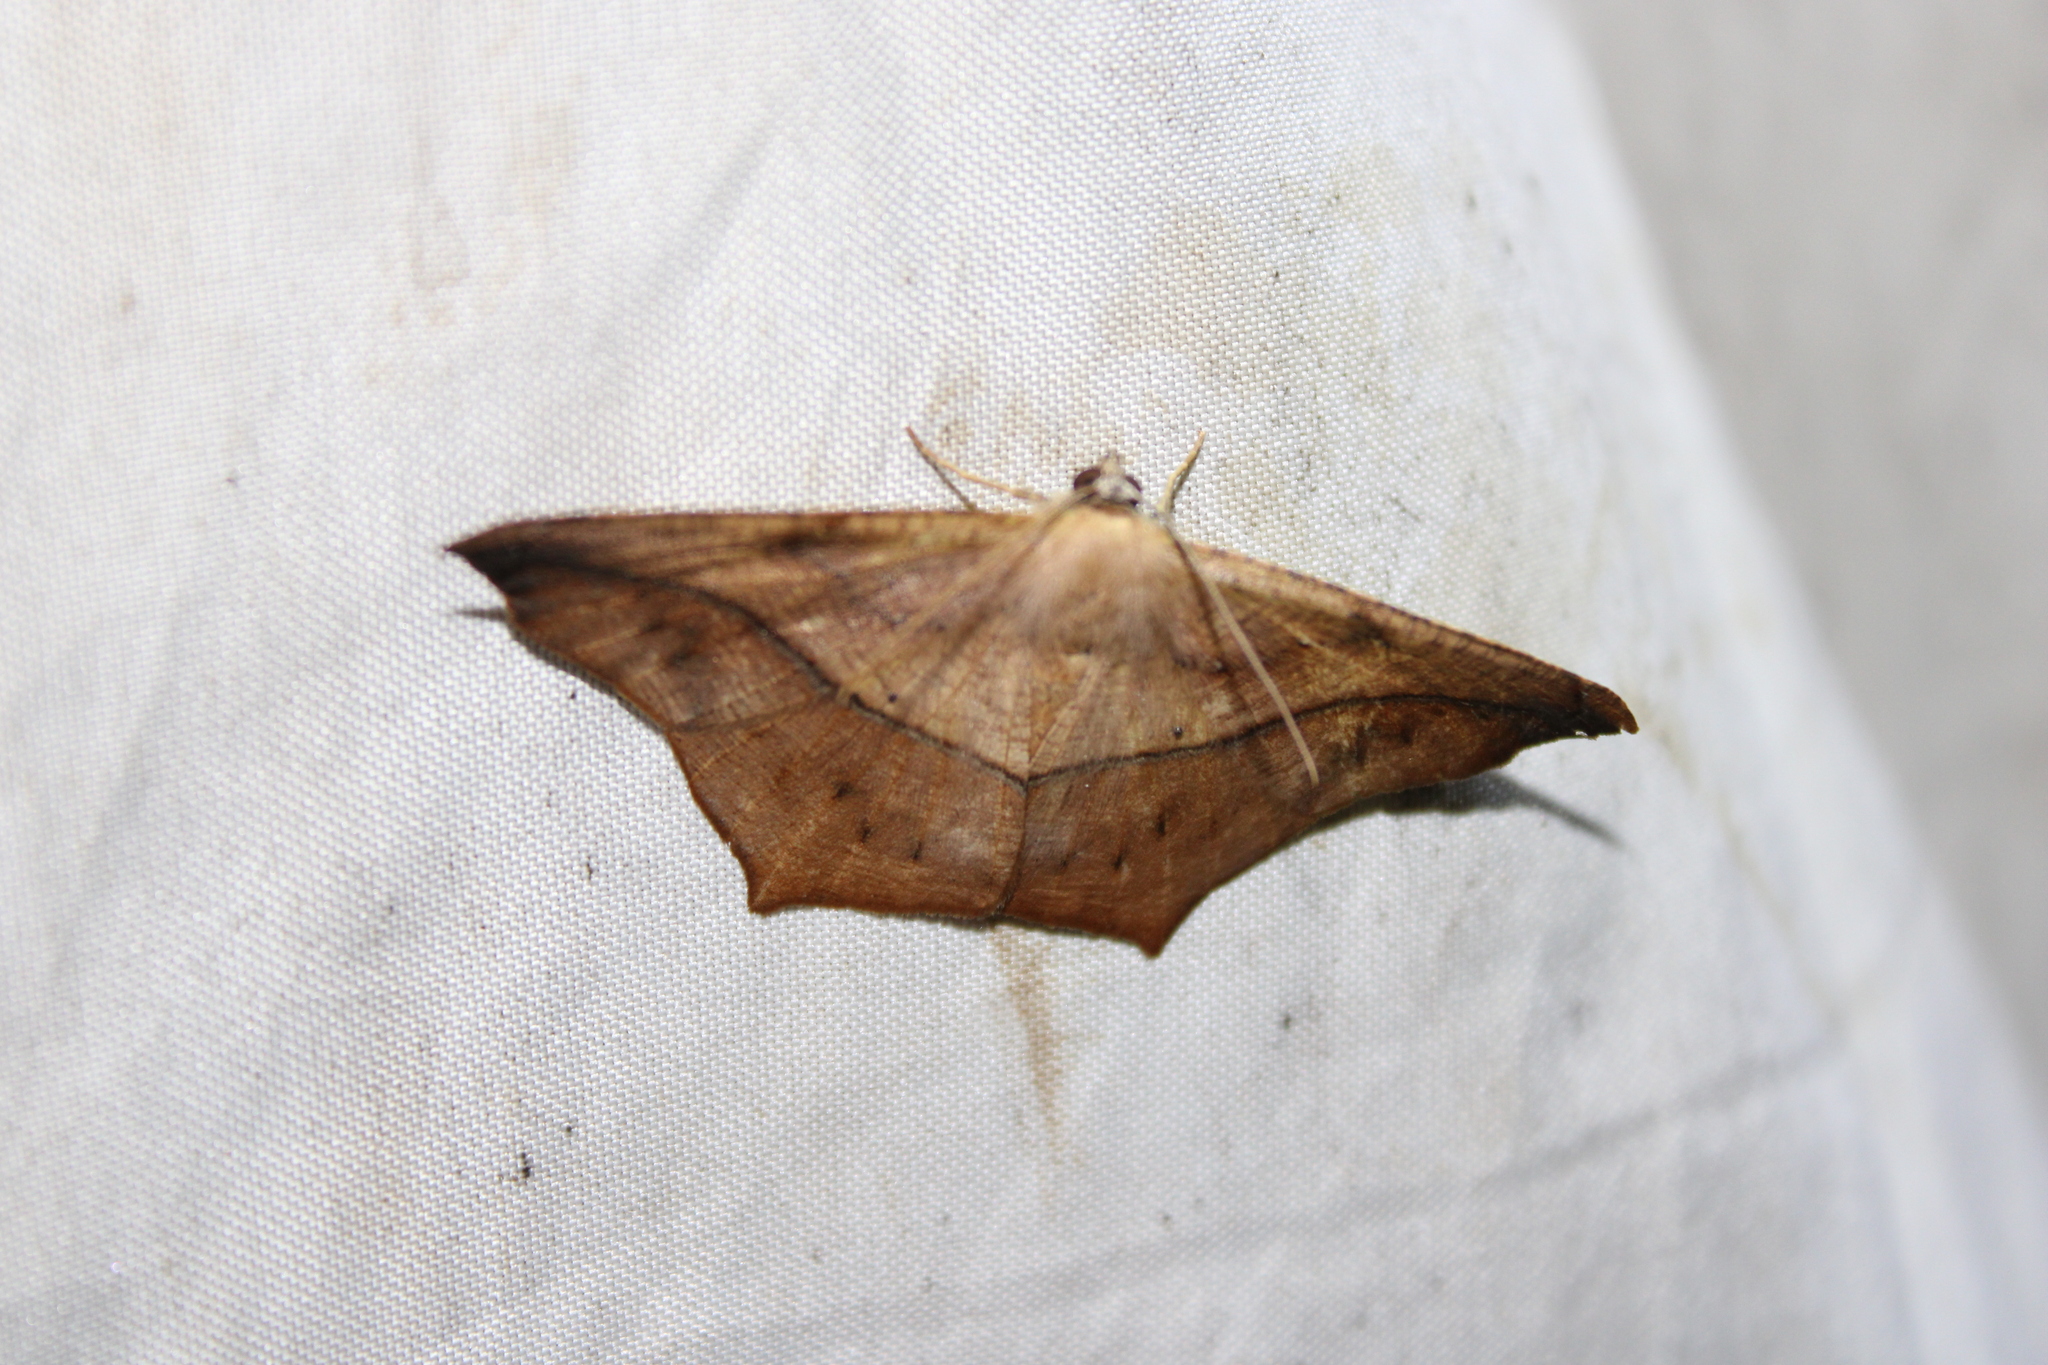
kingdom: Animalia
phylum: Arthropoda
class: Insecta
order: Lepidoptera
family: Geometridae
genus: Prochoerodes
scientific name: Prochoerodes lineola
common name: Large maple spanworm
